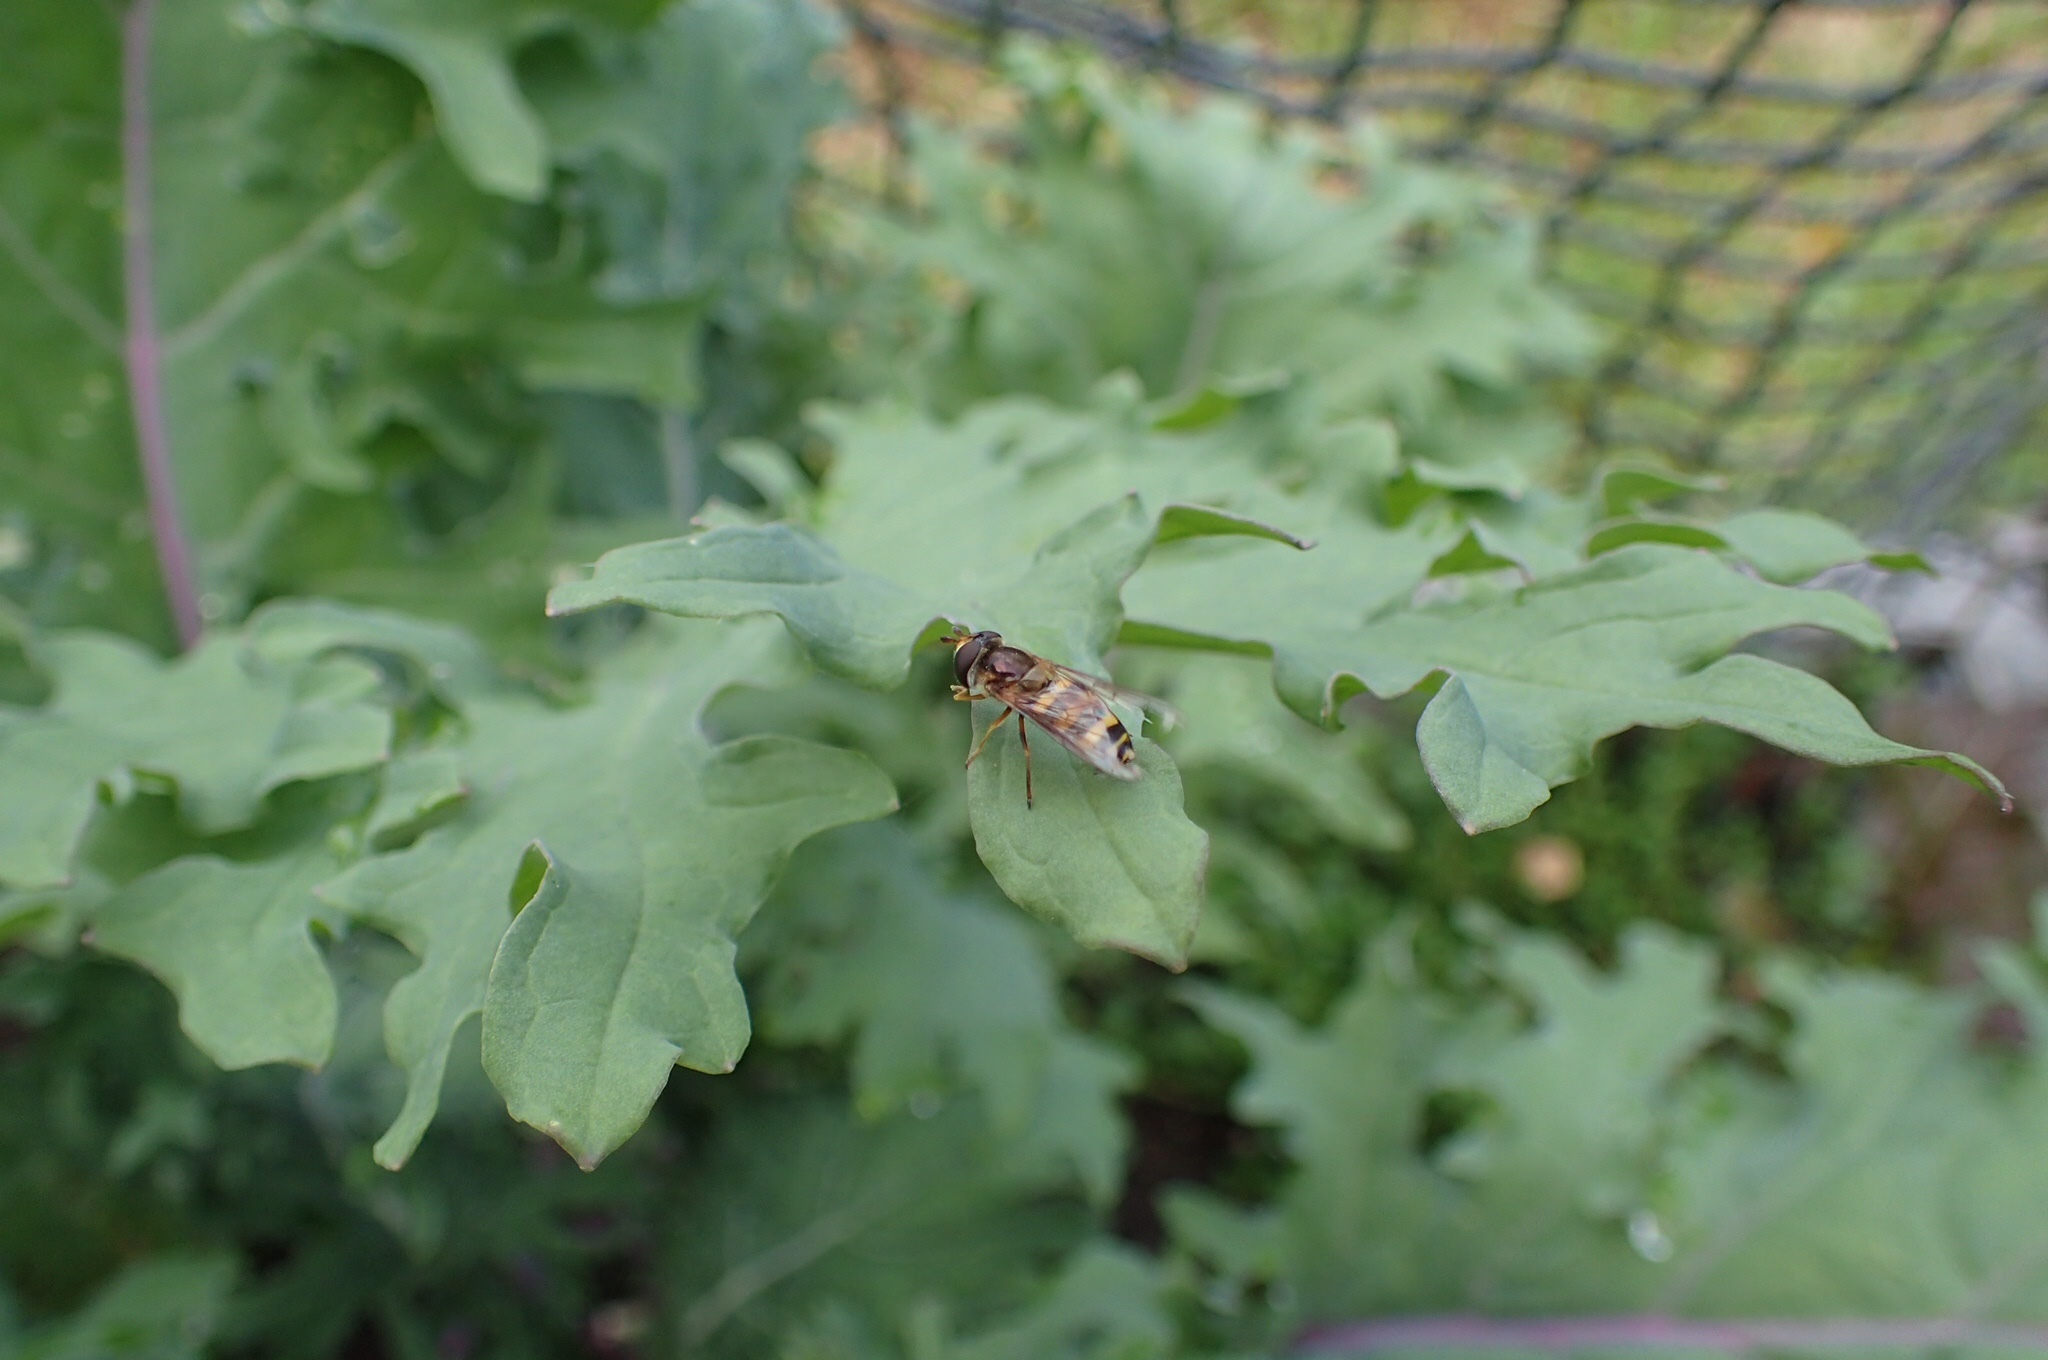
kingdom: Animalia
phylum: Arthropoda
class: Insecta
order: Diptera
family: Syrphidae
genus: Eupeodes
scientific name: Eupeodes
